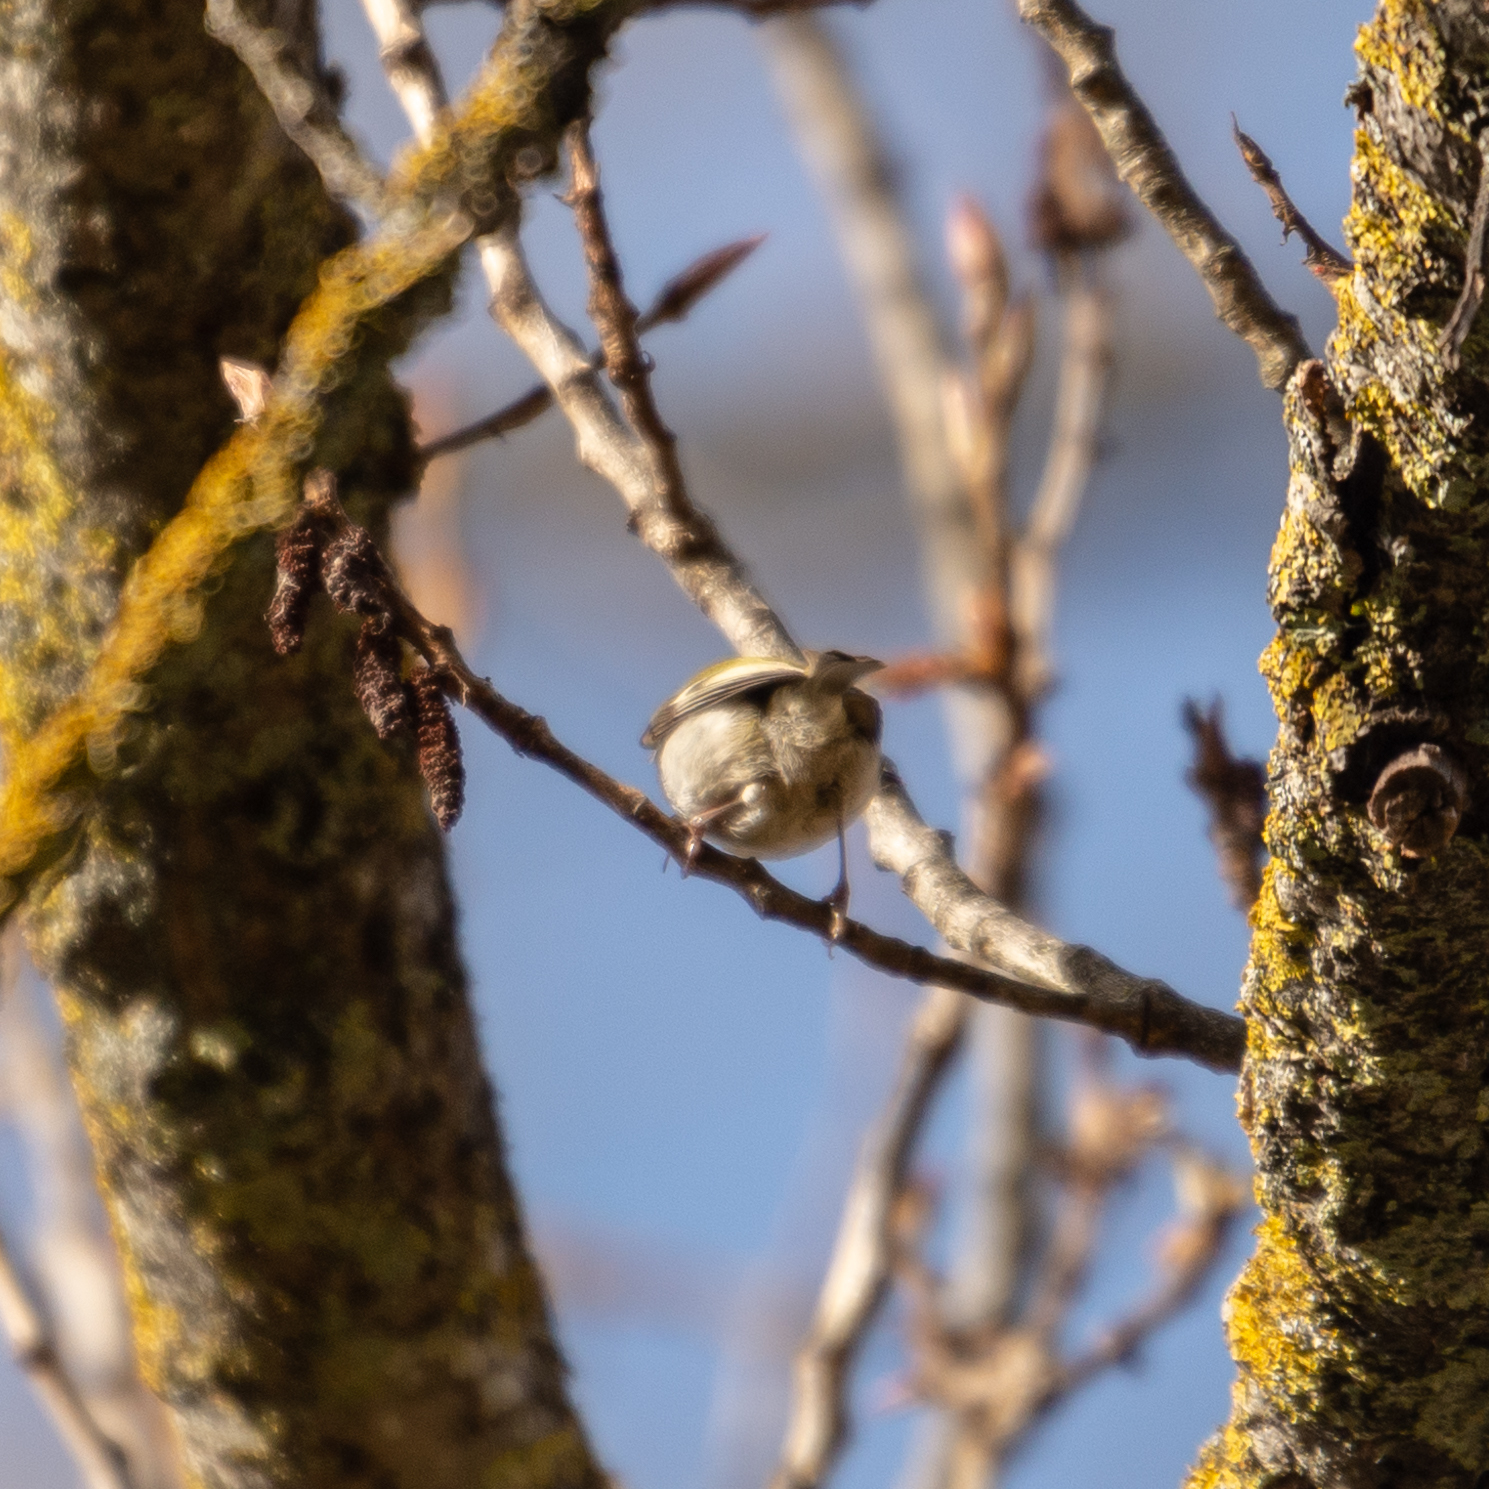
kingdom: Animalia
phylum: Chordata
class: Aves
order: Passeriformes
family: Regulidae
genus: Regulus
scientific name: Regulus ignicapilla
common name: Firecrest
